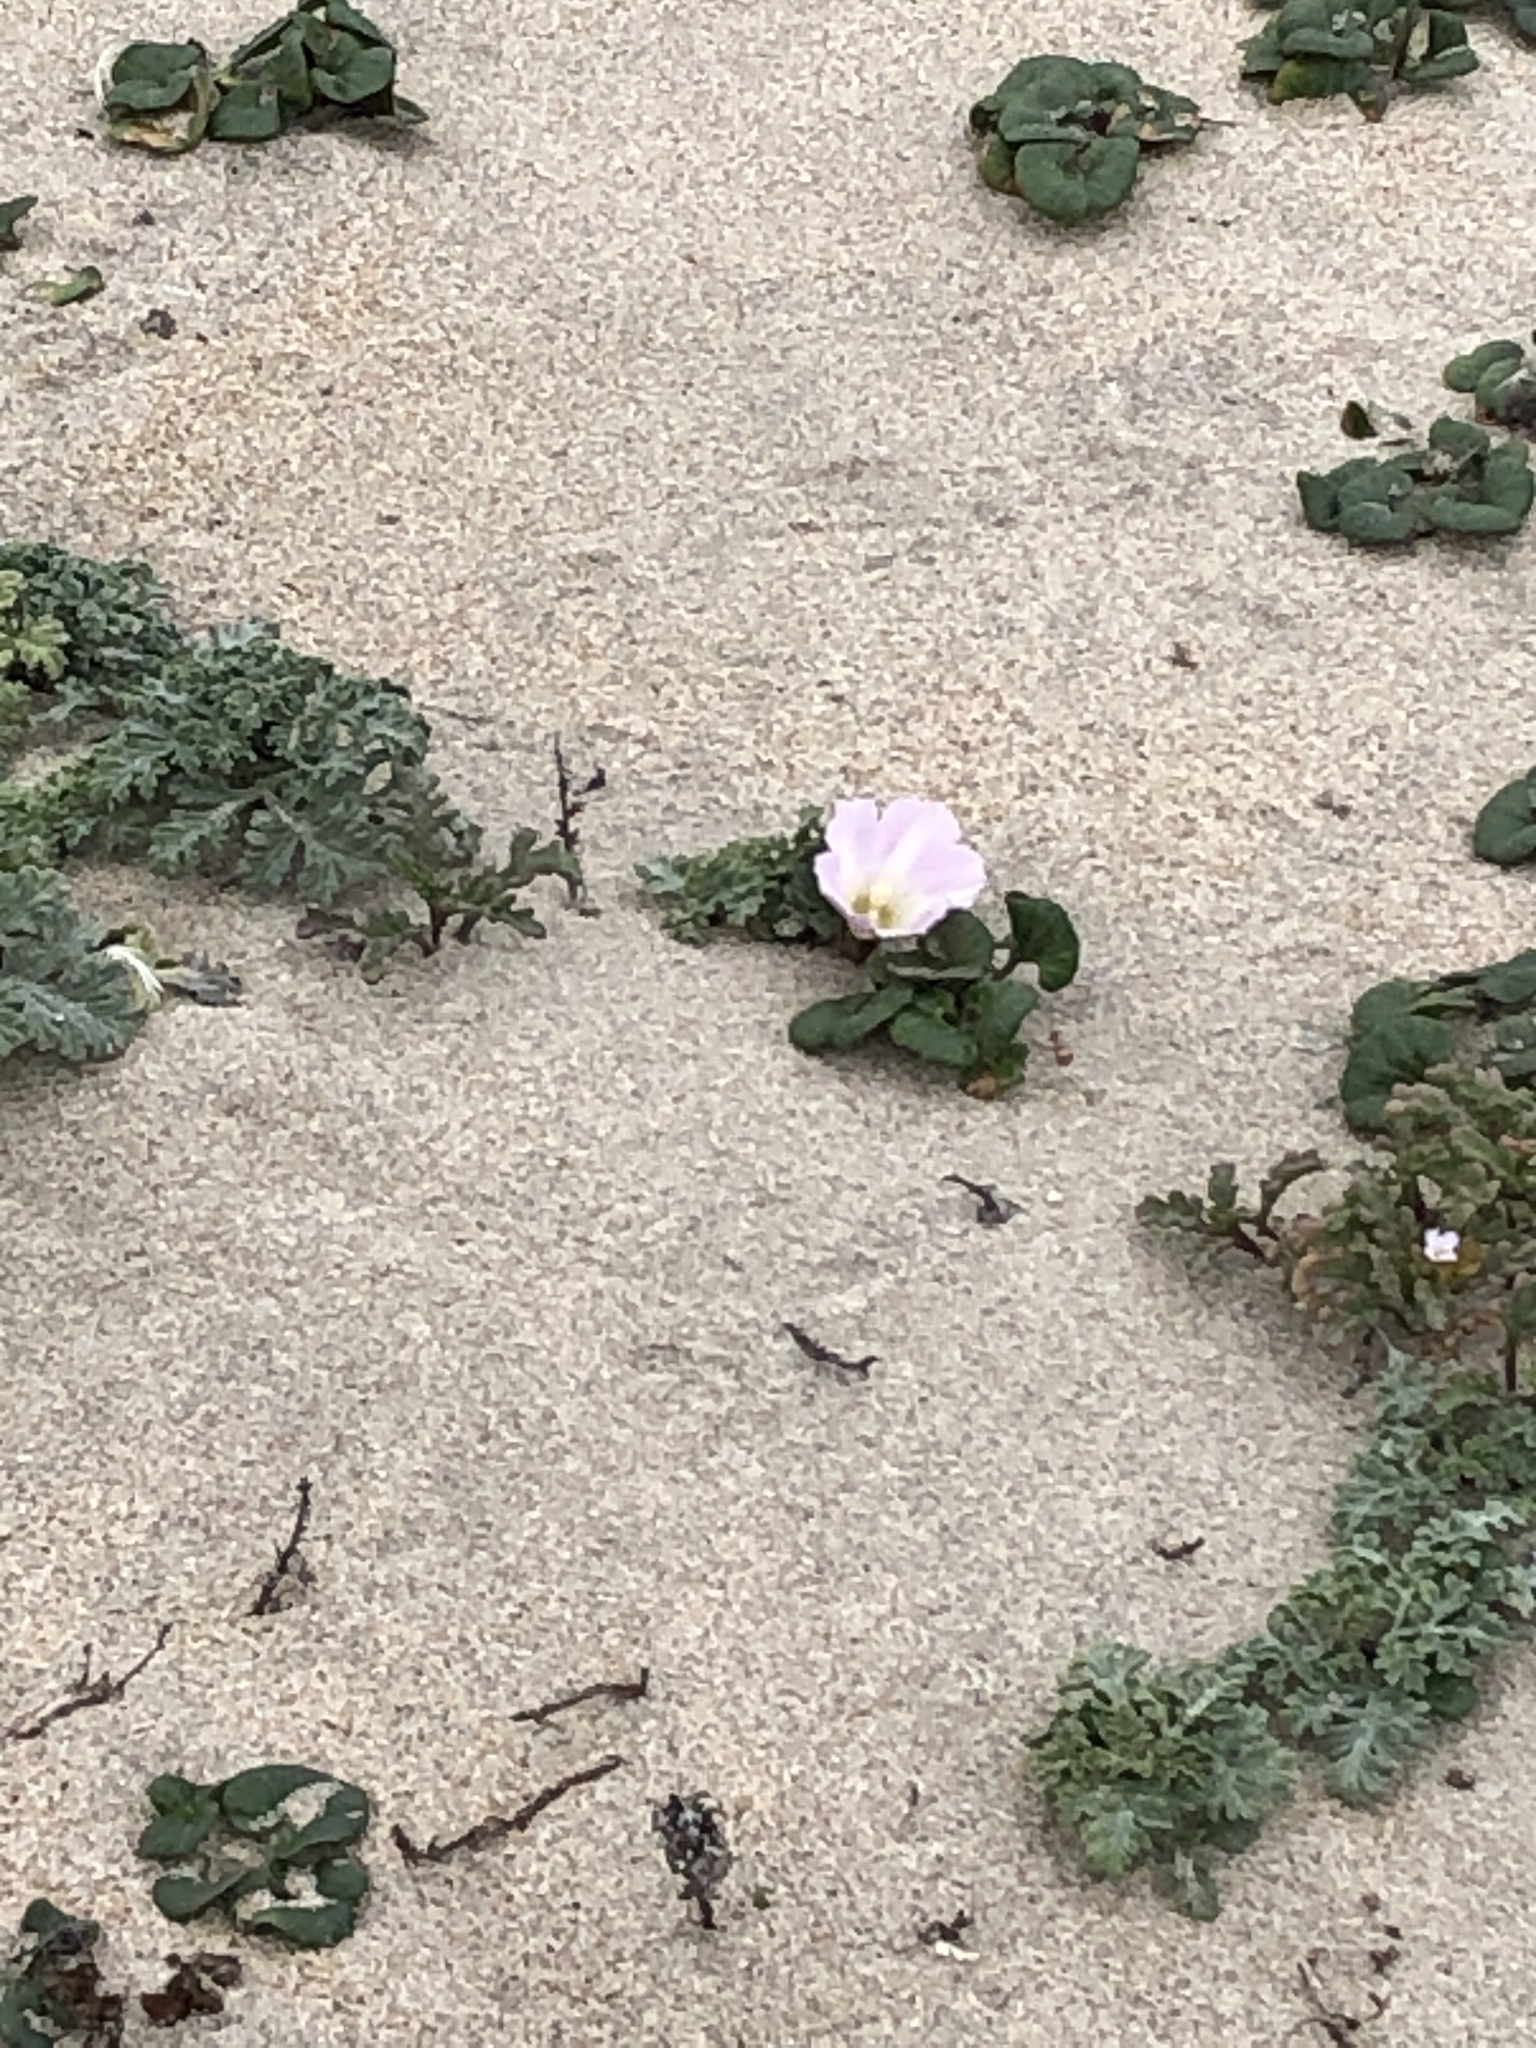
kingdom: Plantae
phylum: Tracheophyta
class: Magnoliopsida
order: Solanales
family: Convolvulaceae
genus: Calystegia
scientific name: Calystegia soldanella
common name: Sea bindweed
